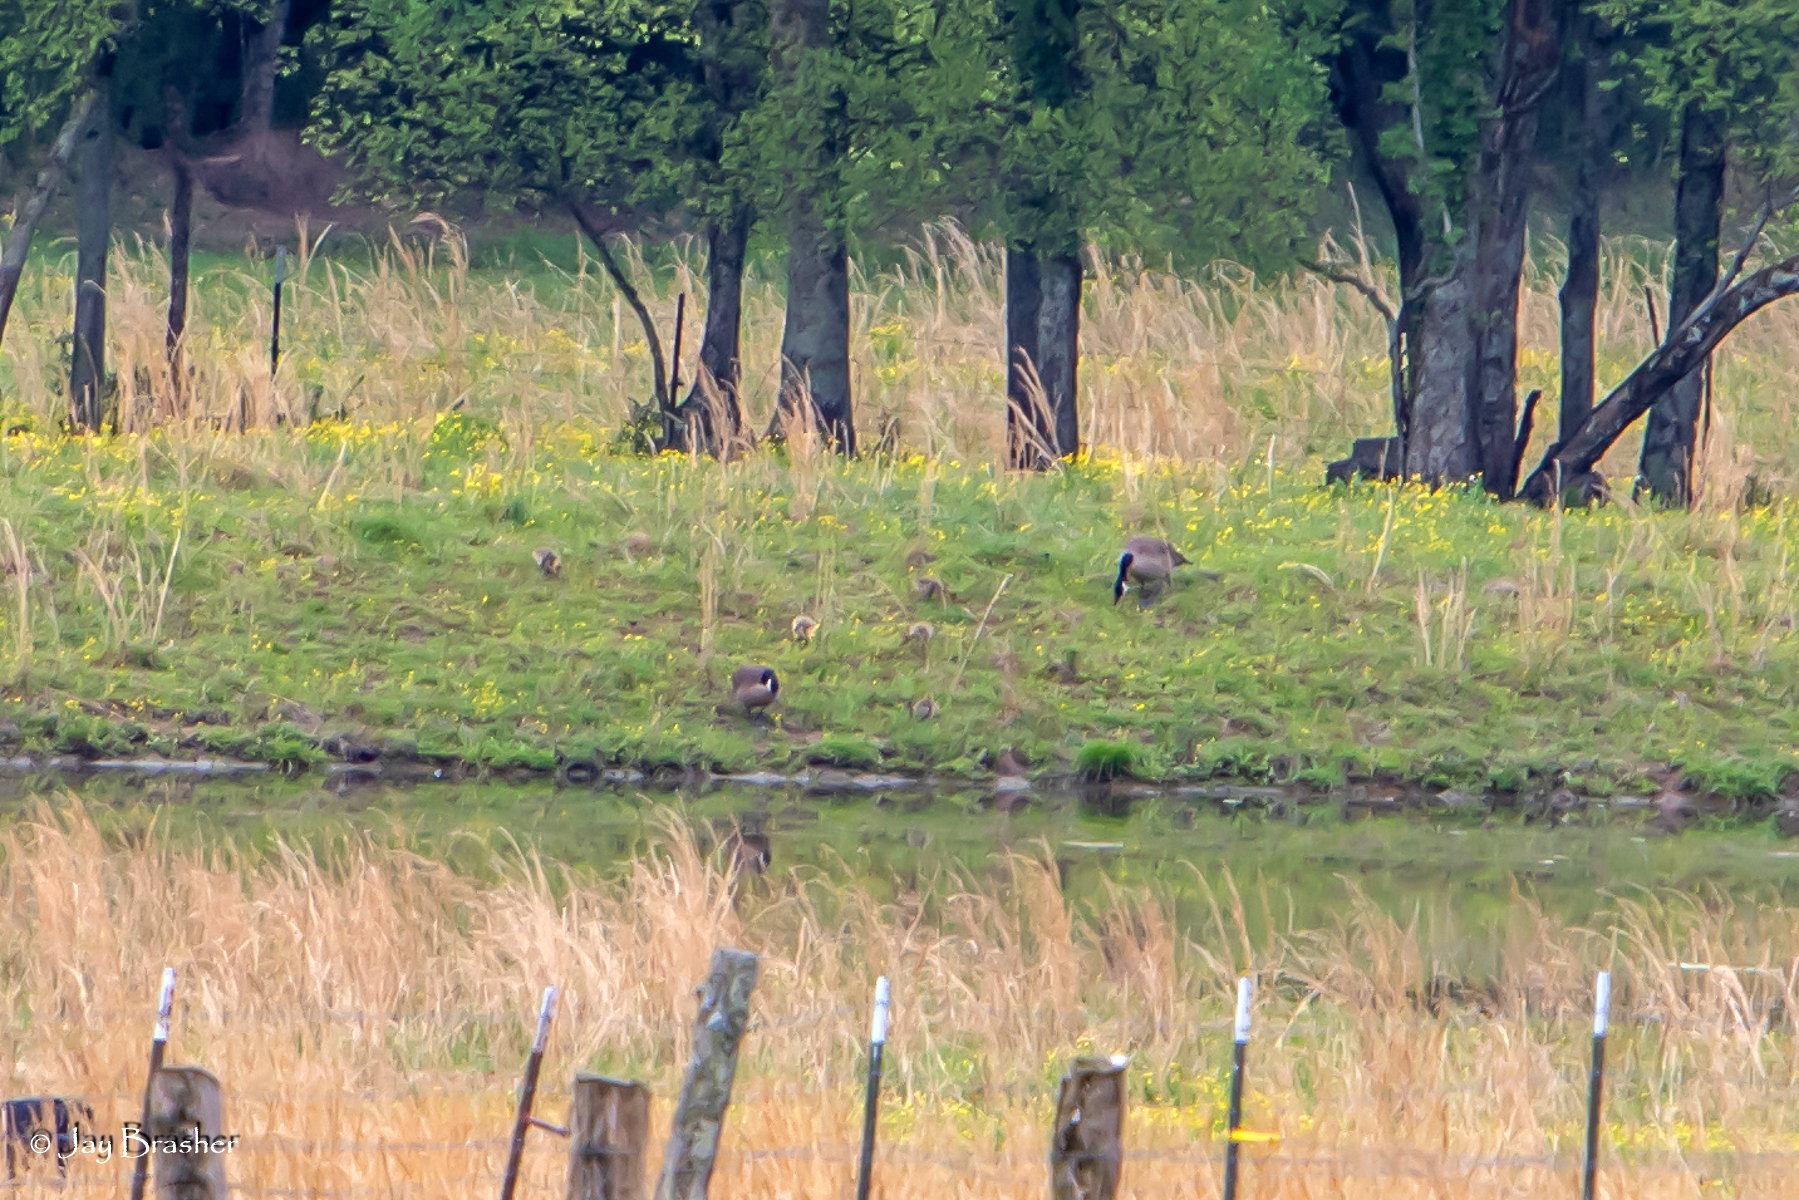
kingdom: Animalia
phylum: Chordata
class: Aves
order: Anseriformes
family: Anatidae
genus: Branta
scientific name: Branta canadensis
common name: Canada goose
